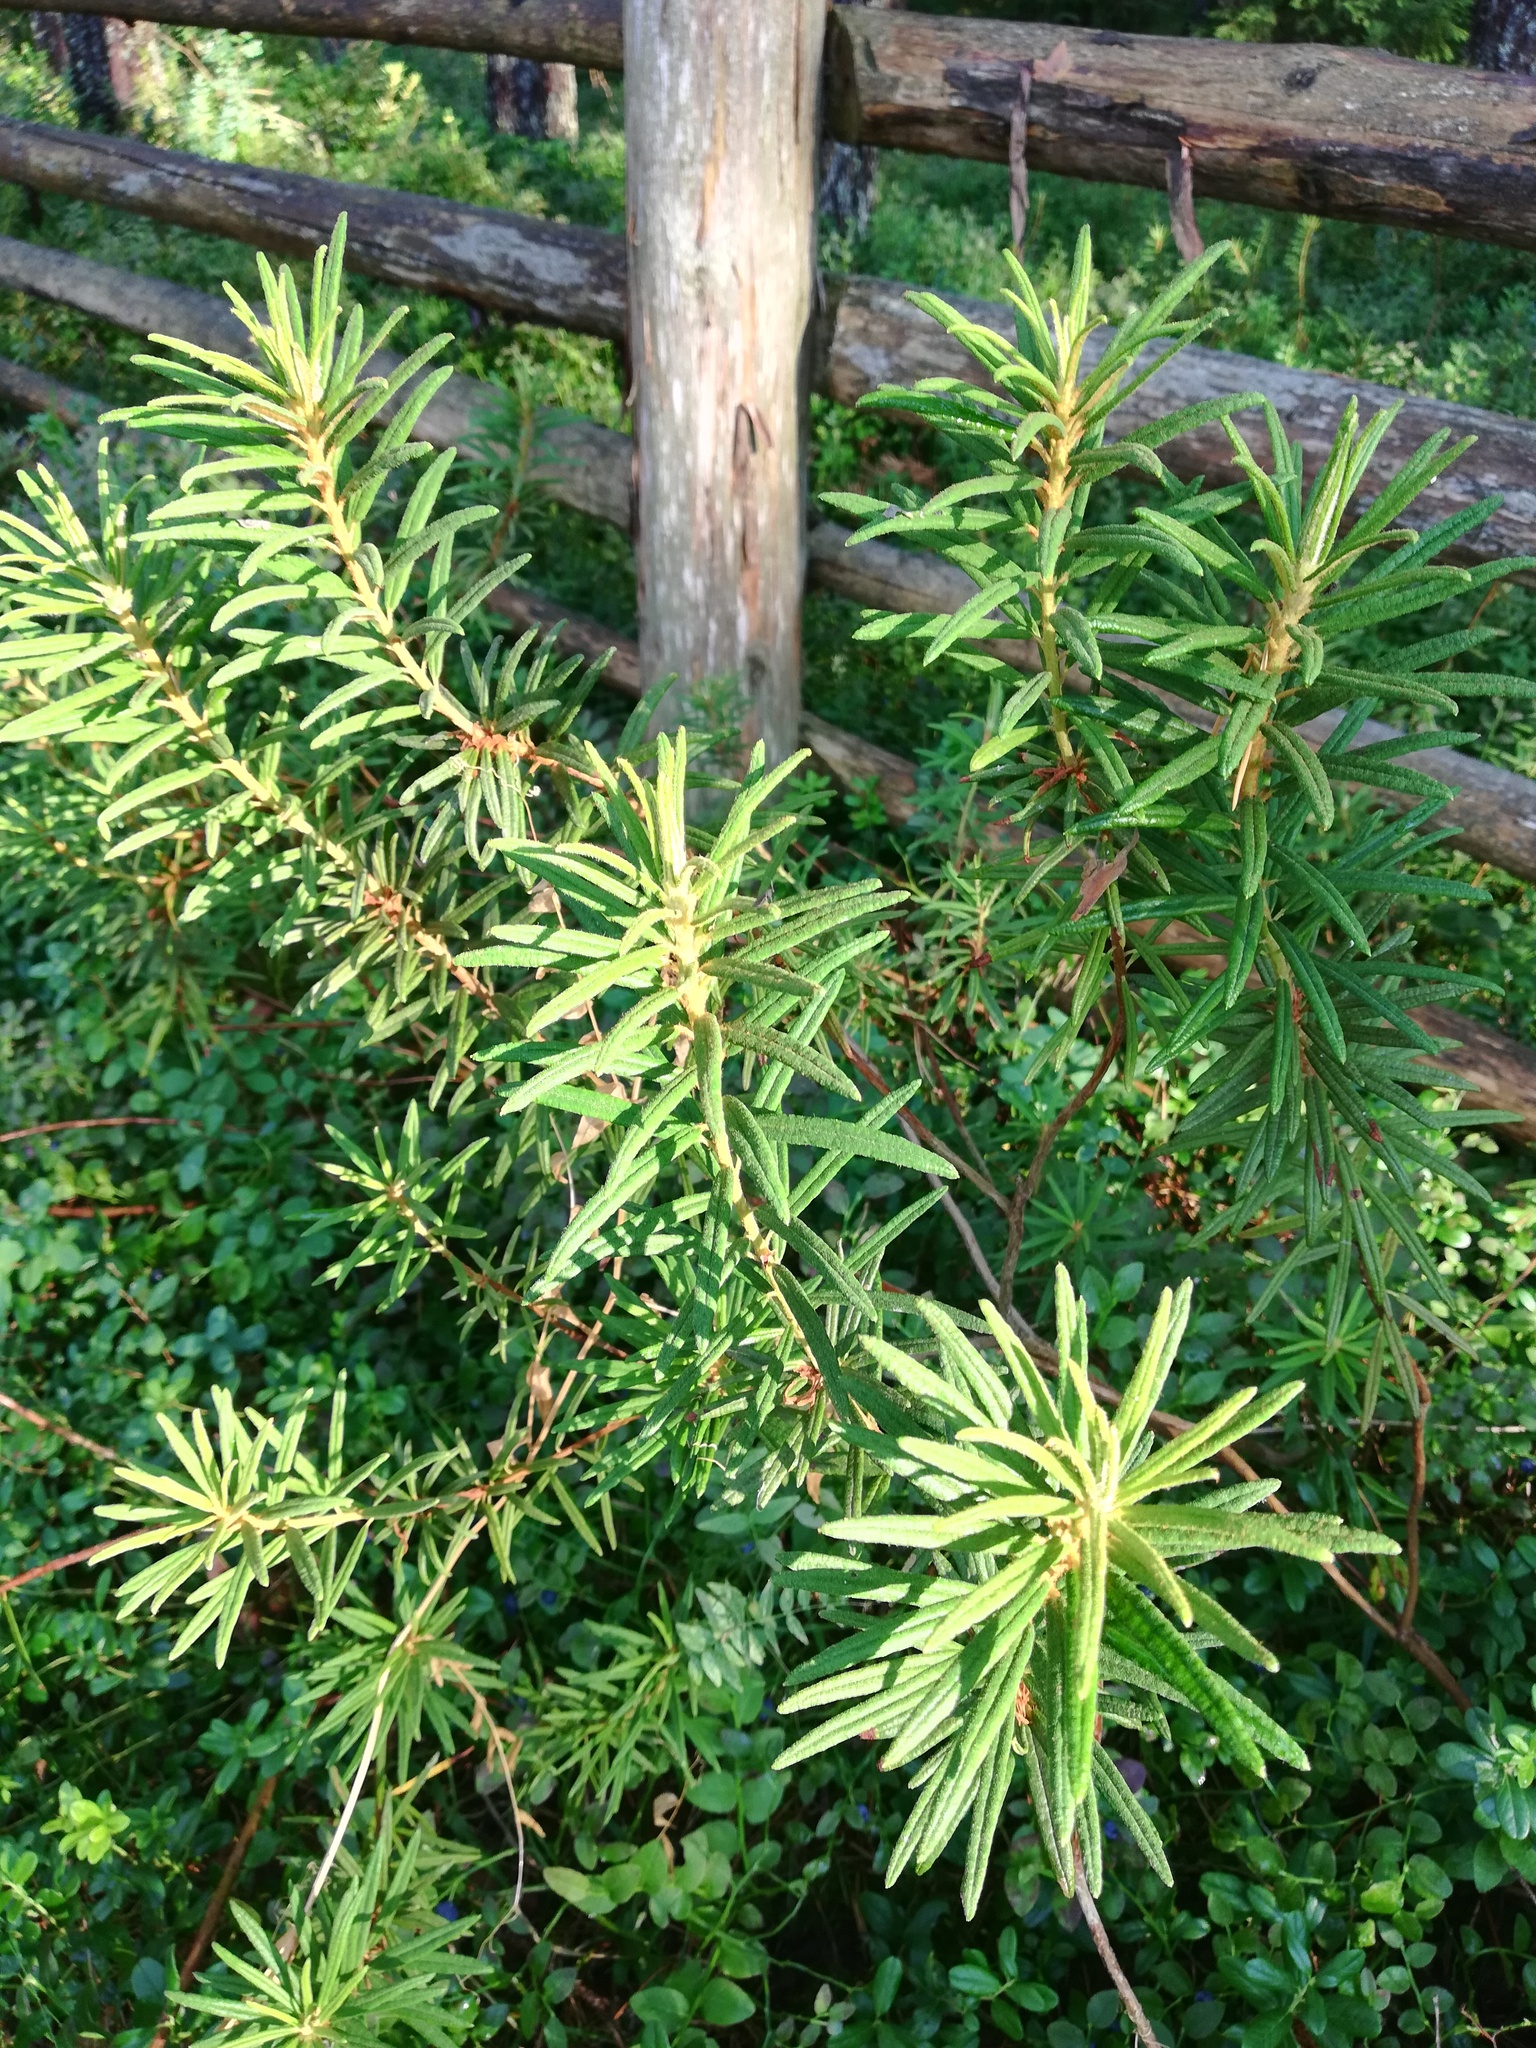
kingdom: Plantae
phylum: Tracheophyta
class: Magnoliopsida
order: Ericales
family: Ericaceae
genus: Rhododendron
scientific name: Rhododendron tomentosum
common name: Marsh labrador tea
